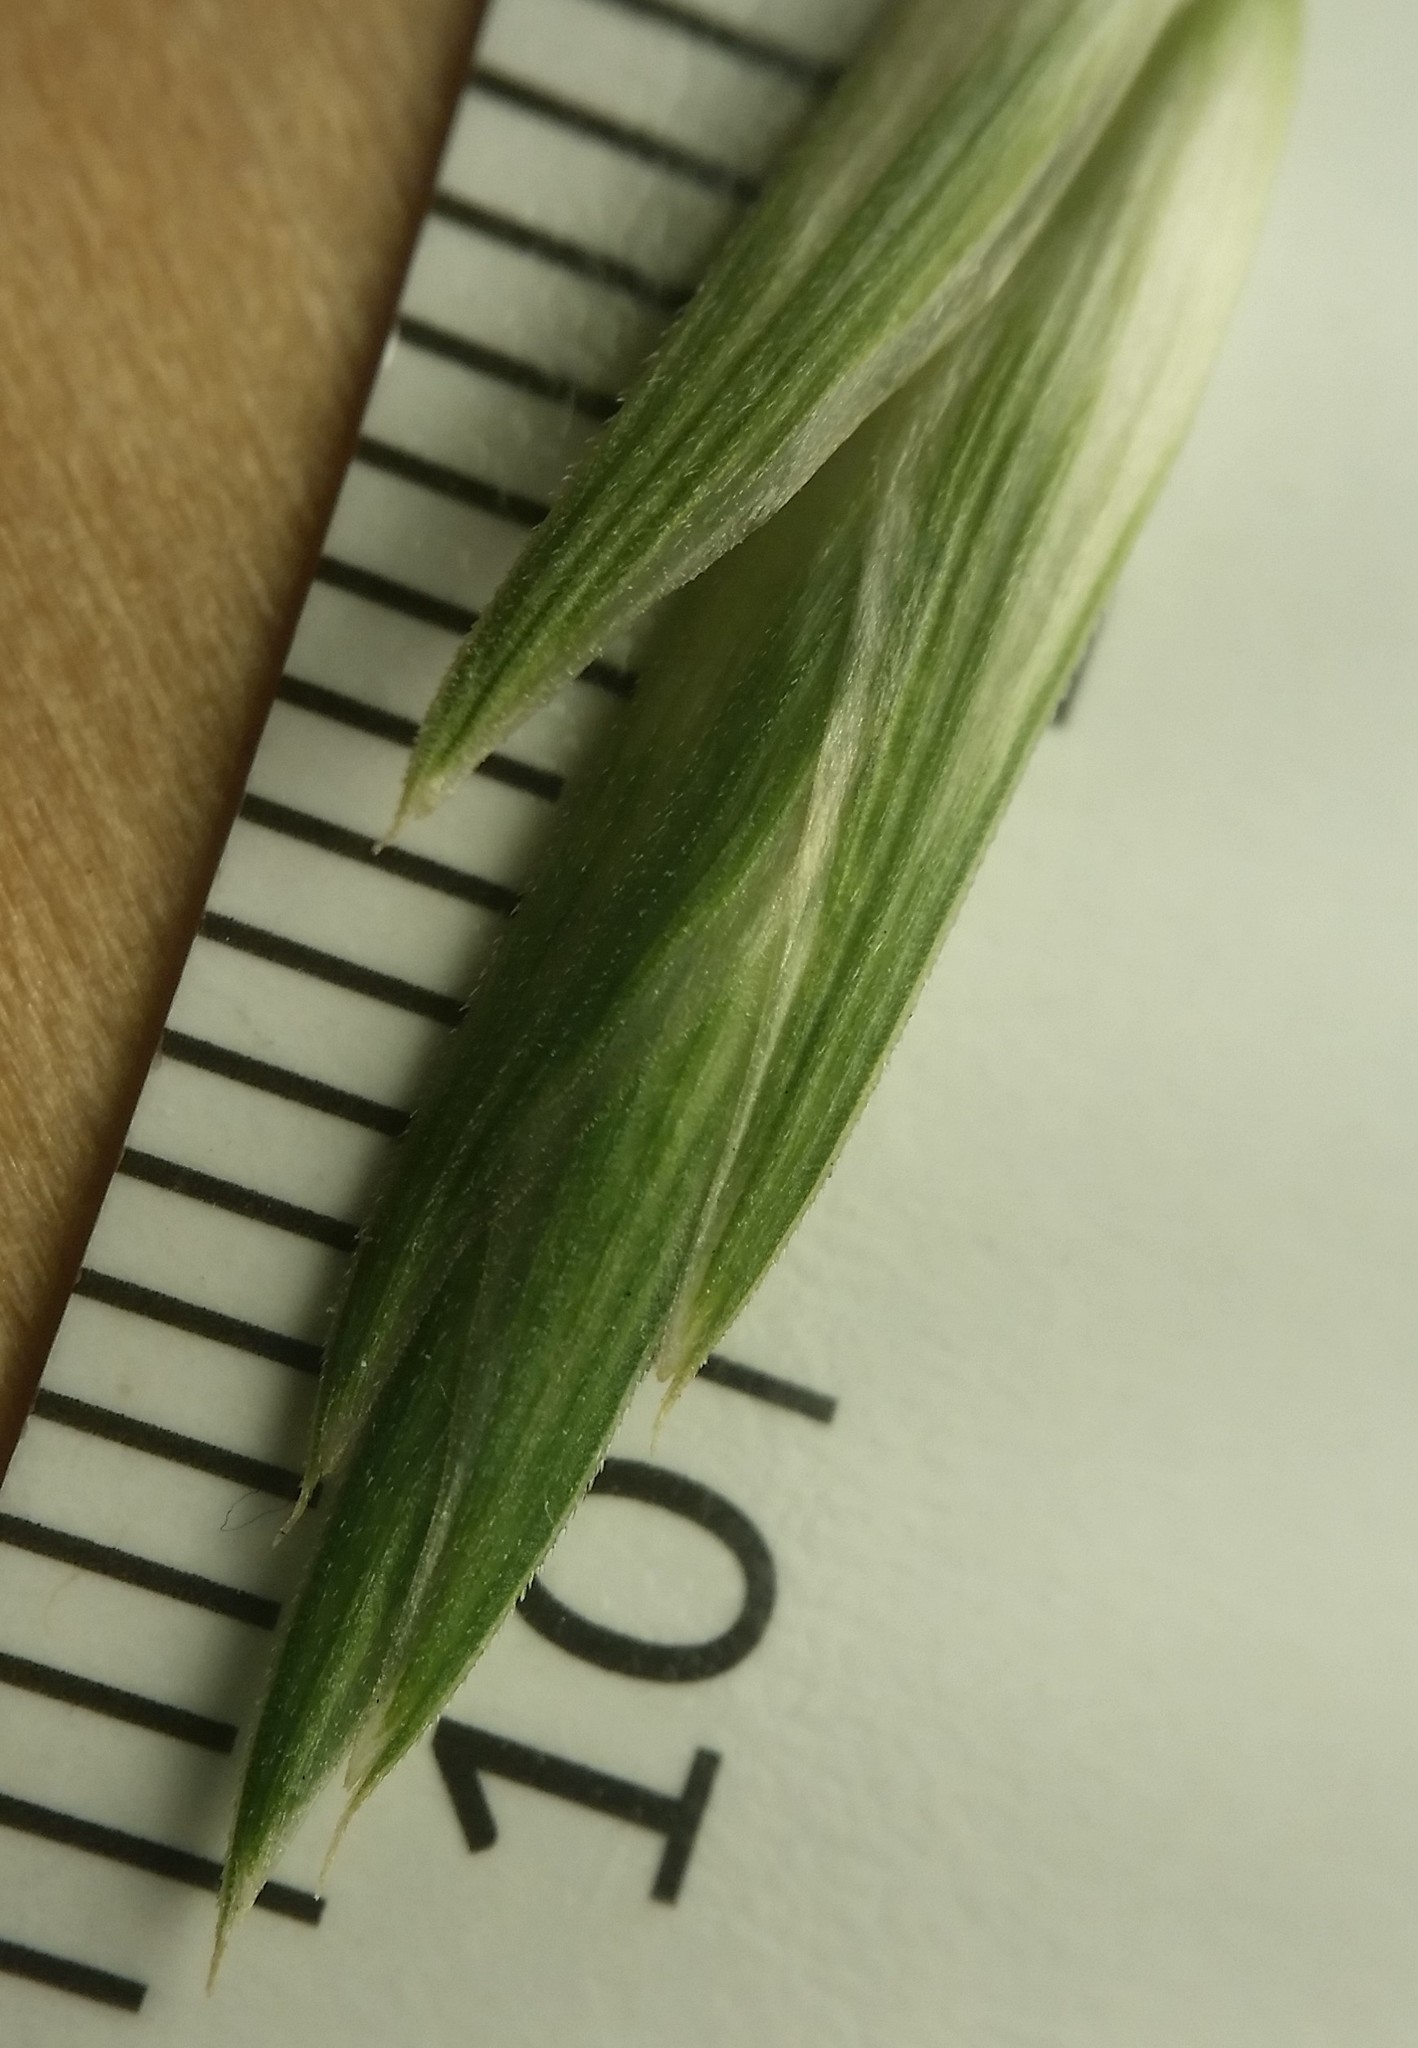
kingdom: Plantae
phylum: Tracheophyta
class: Liliopsida
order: Poales
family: Poaceae
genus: Bromus
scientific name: Bromus catharticus
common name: Rescuegrass
